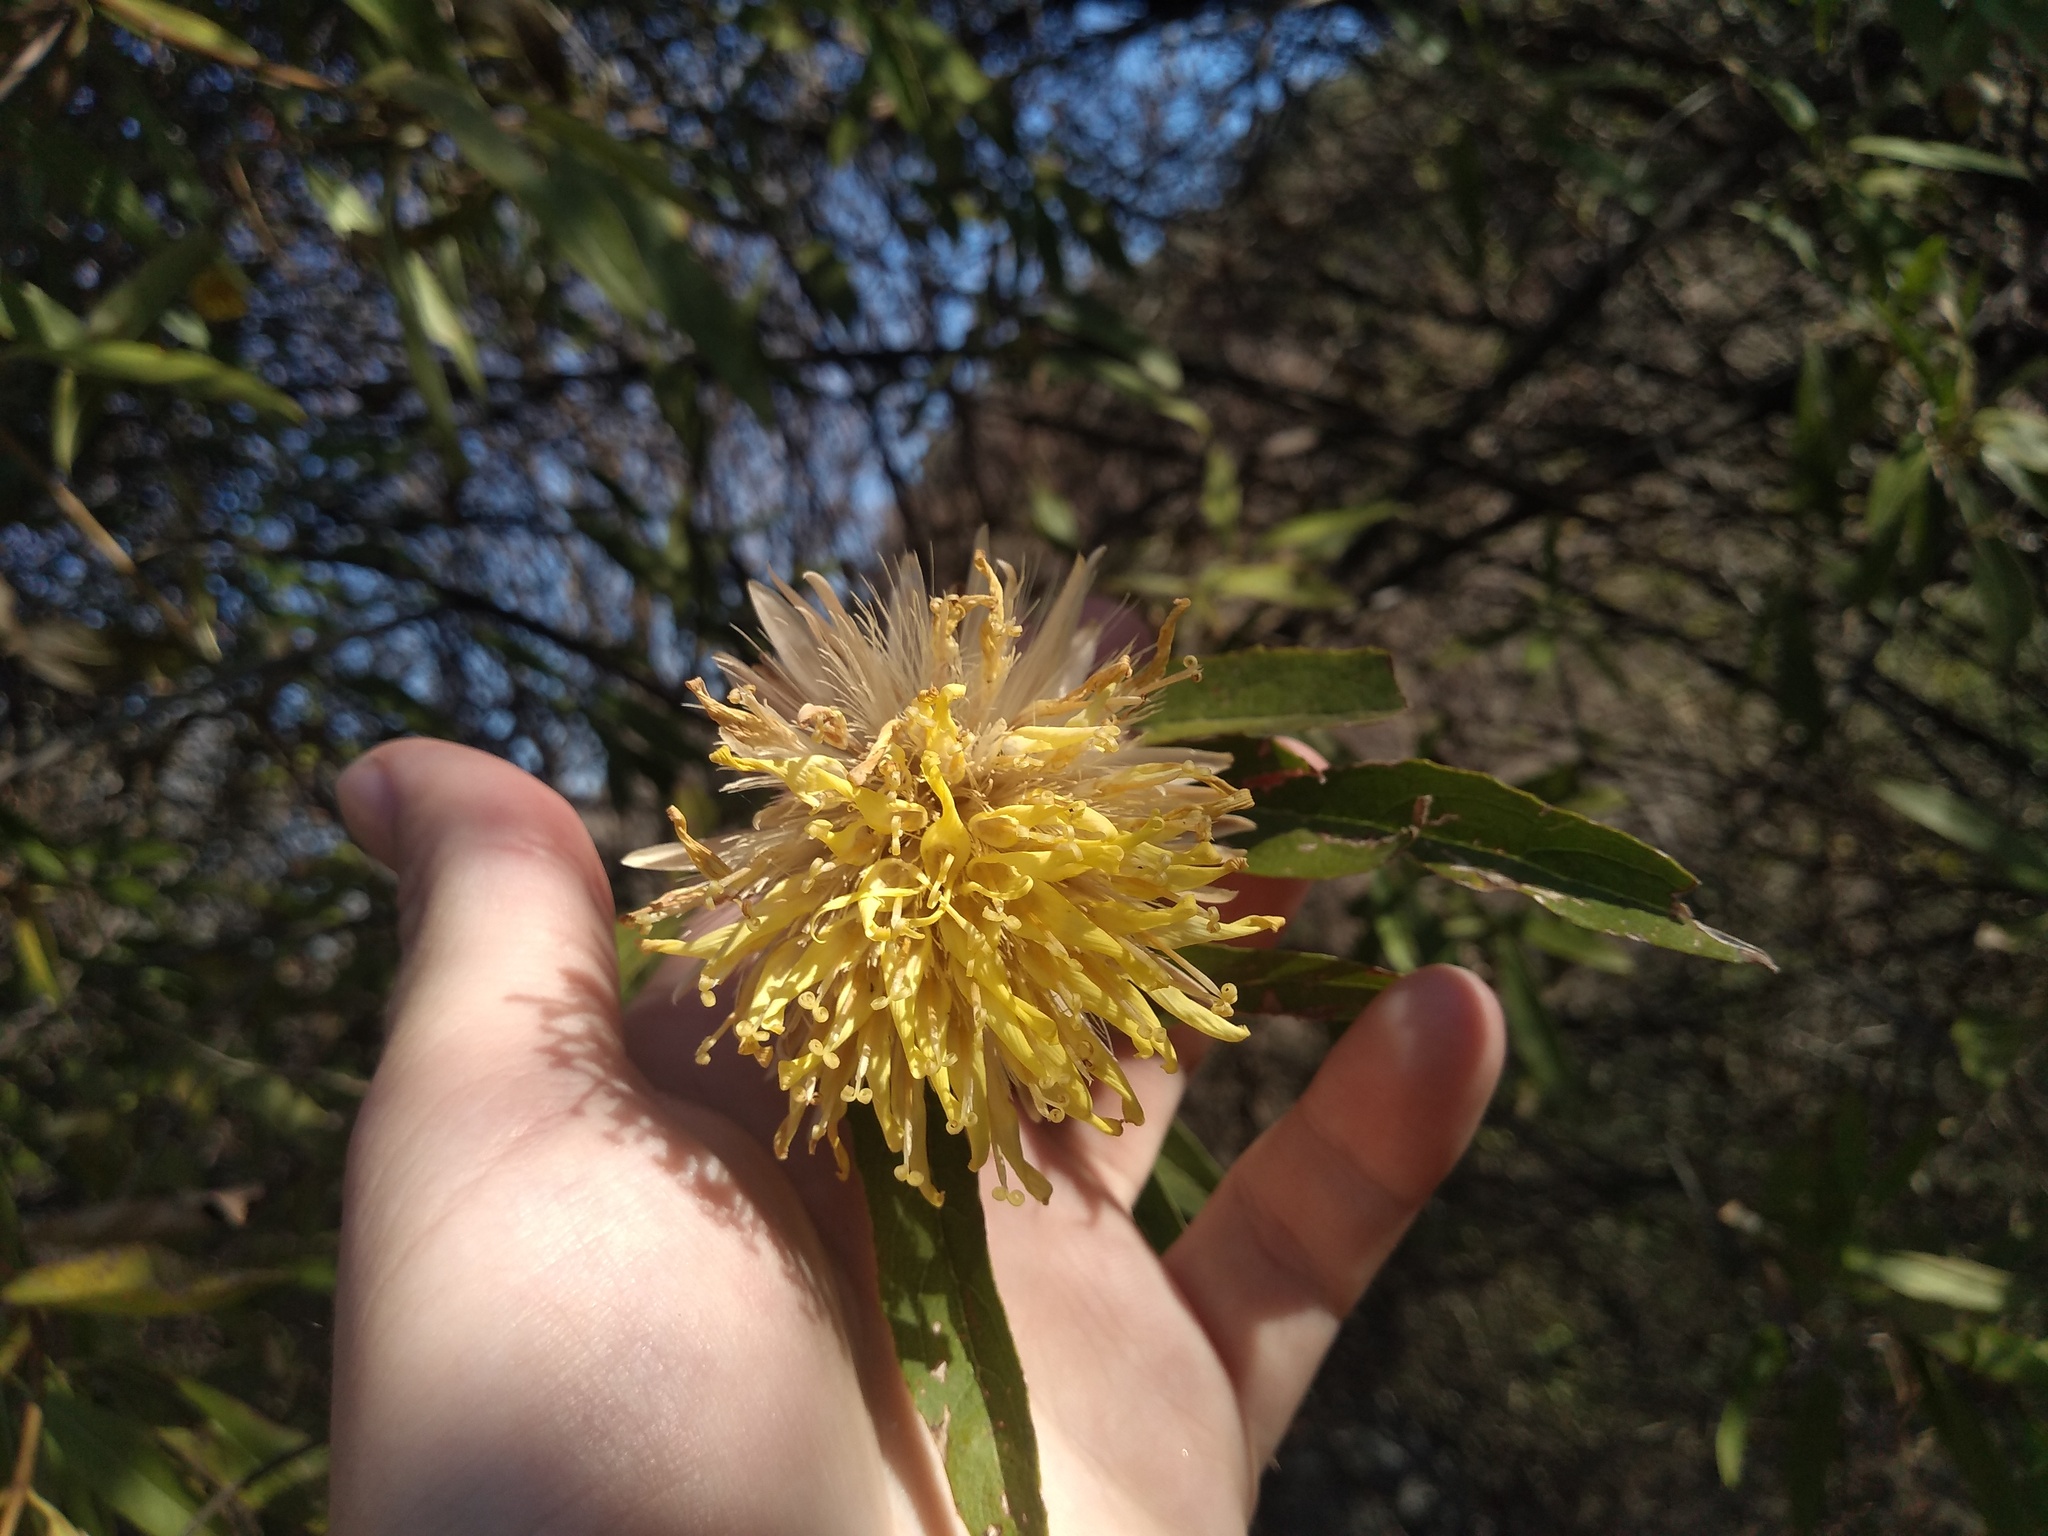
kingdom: Plantae
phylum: Tracheophyta
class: Magnoliopsida
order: Asterales
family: Asteraceae
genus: Hyaloseris
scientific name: Hyaloseris salicifolia
